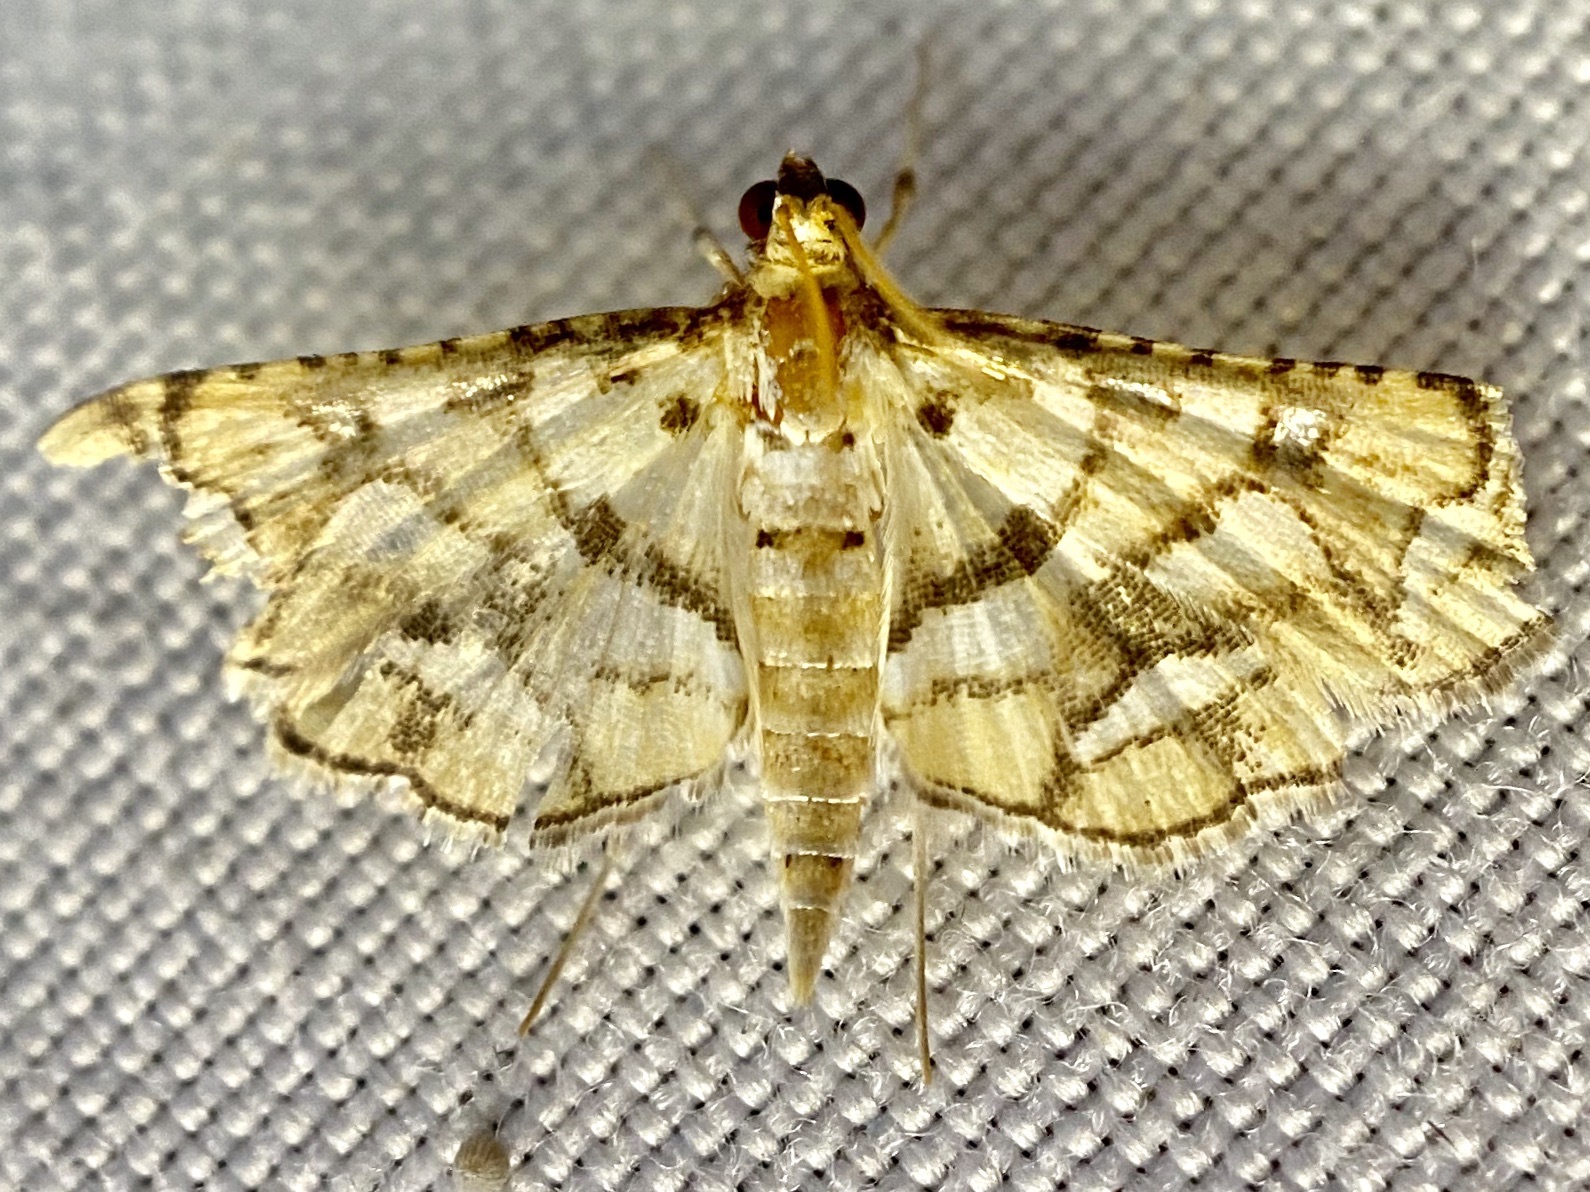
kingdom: Animalia
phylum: Arthropoda
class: Insecta
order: Lepidoptera
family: Crambidae
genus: Hileithia
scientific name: Hileithia magualis
